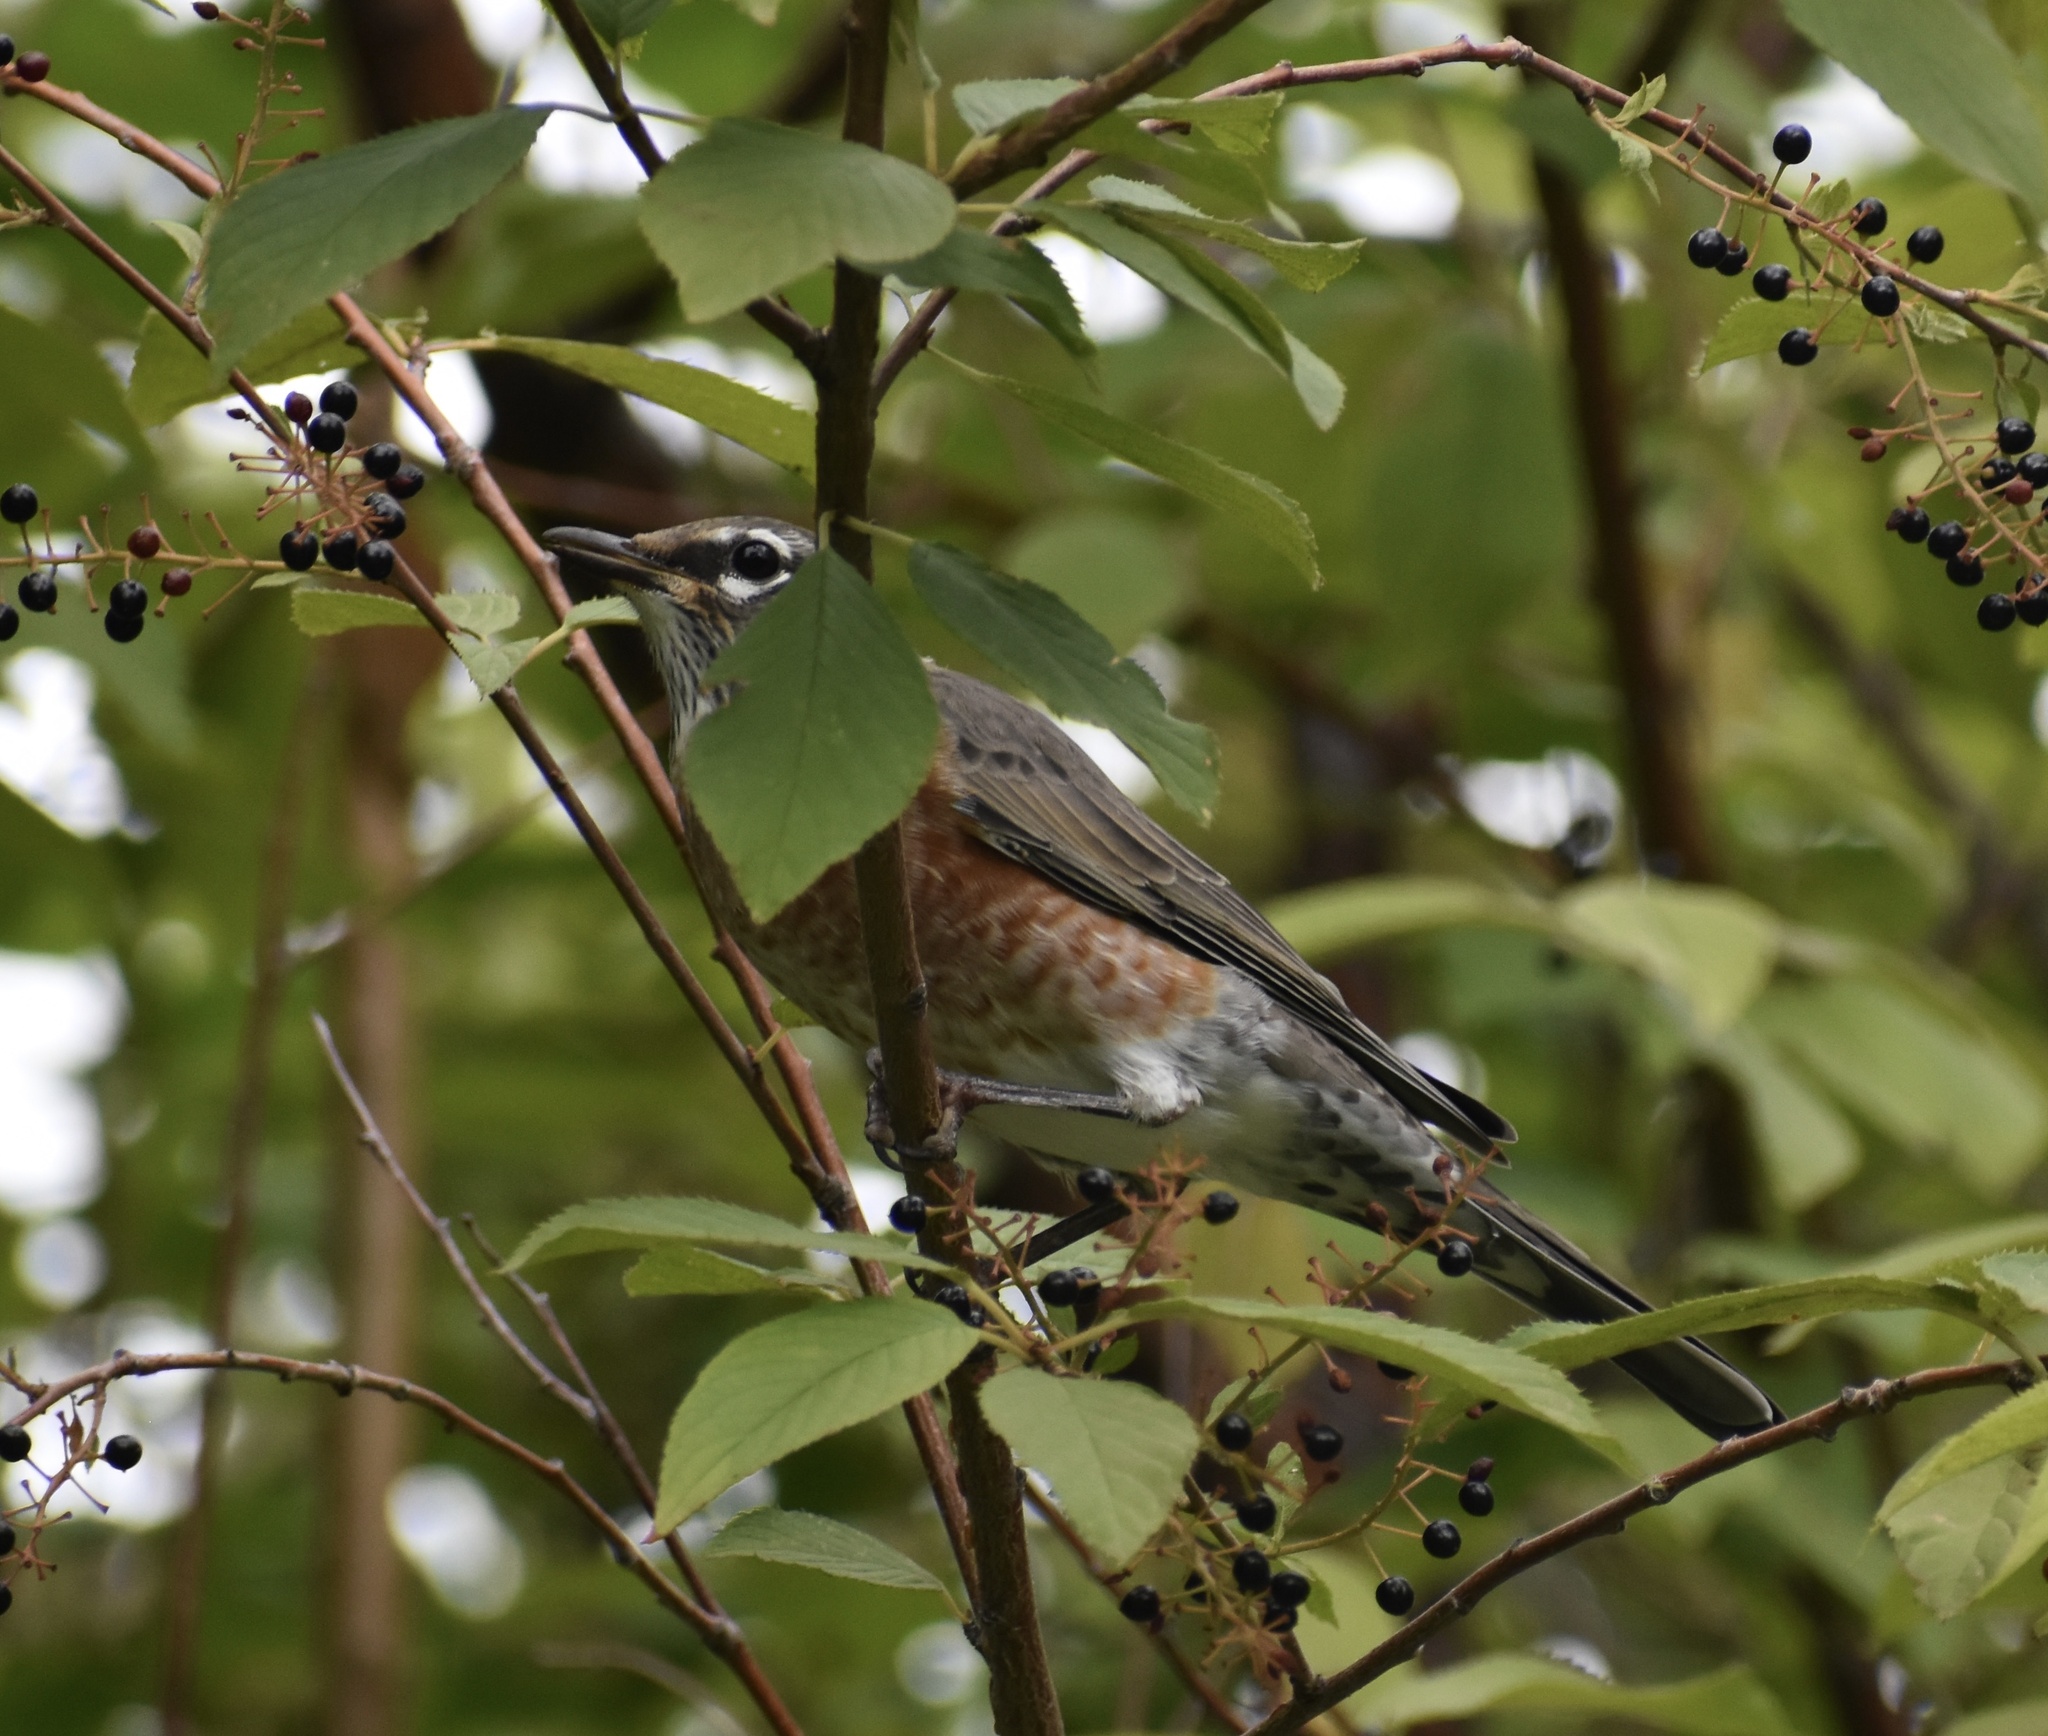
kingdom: Animalia
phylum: Chordata
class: Aves
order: Passeriformes
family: Turdidae
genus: Turdus
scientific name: Turdus migratorius
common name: American robin
